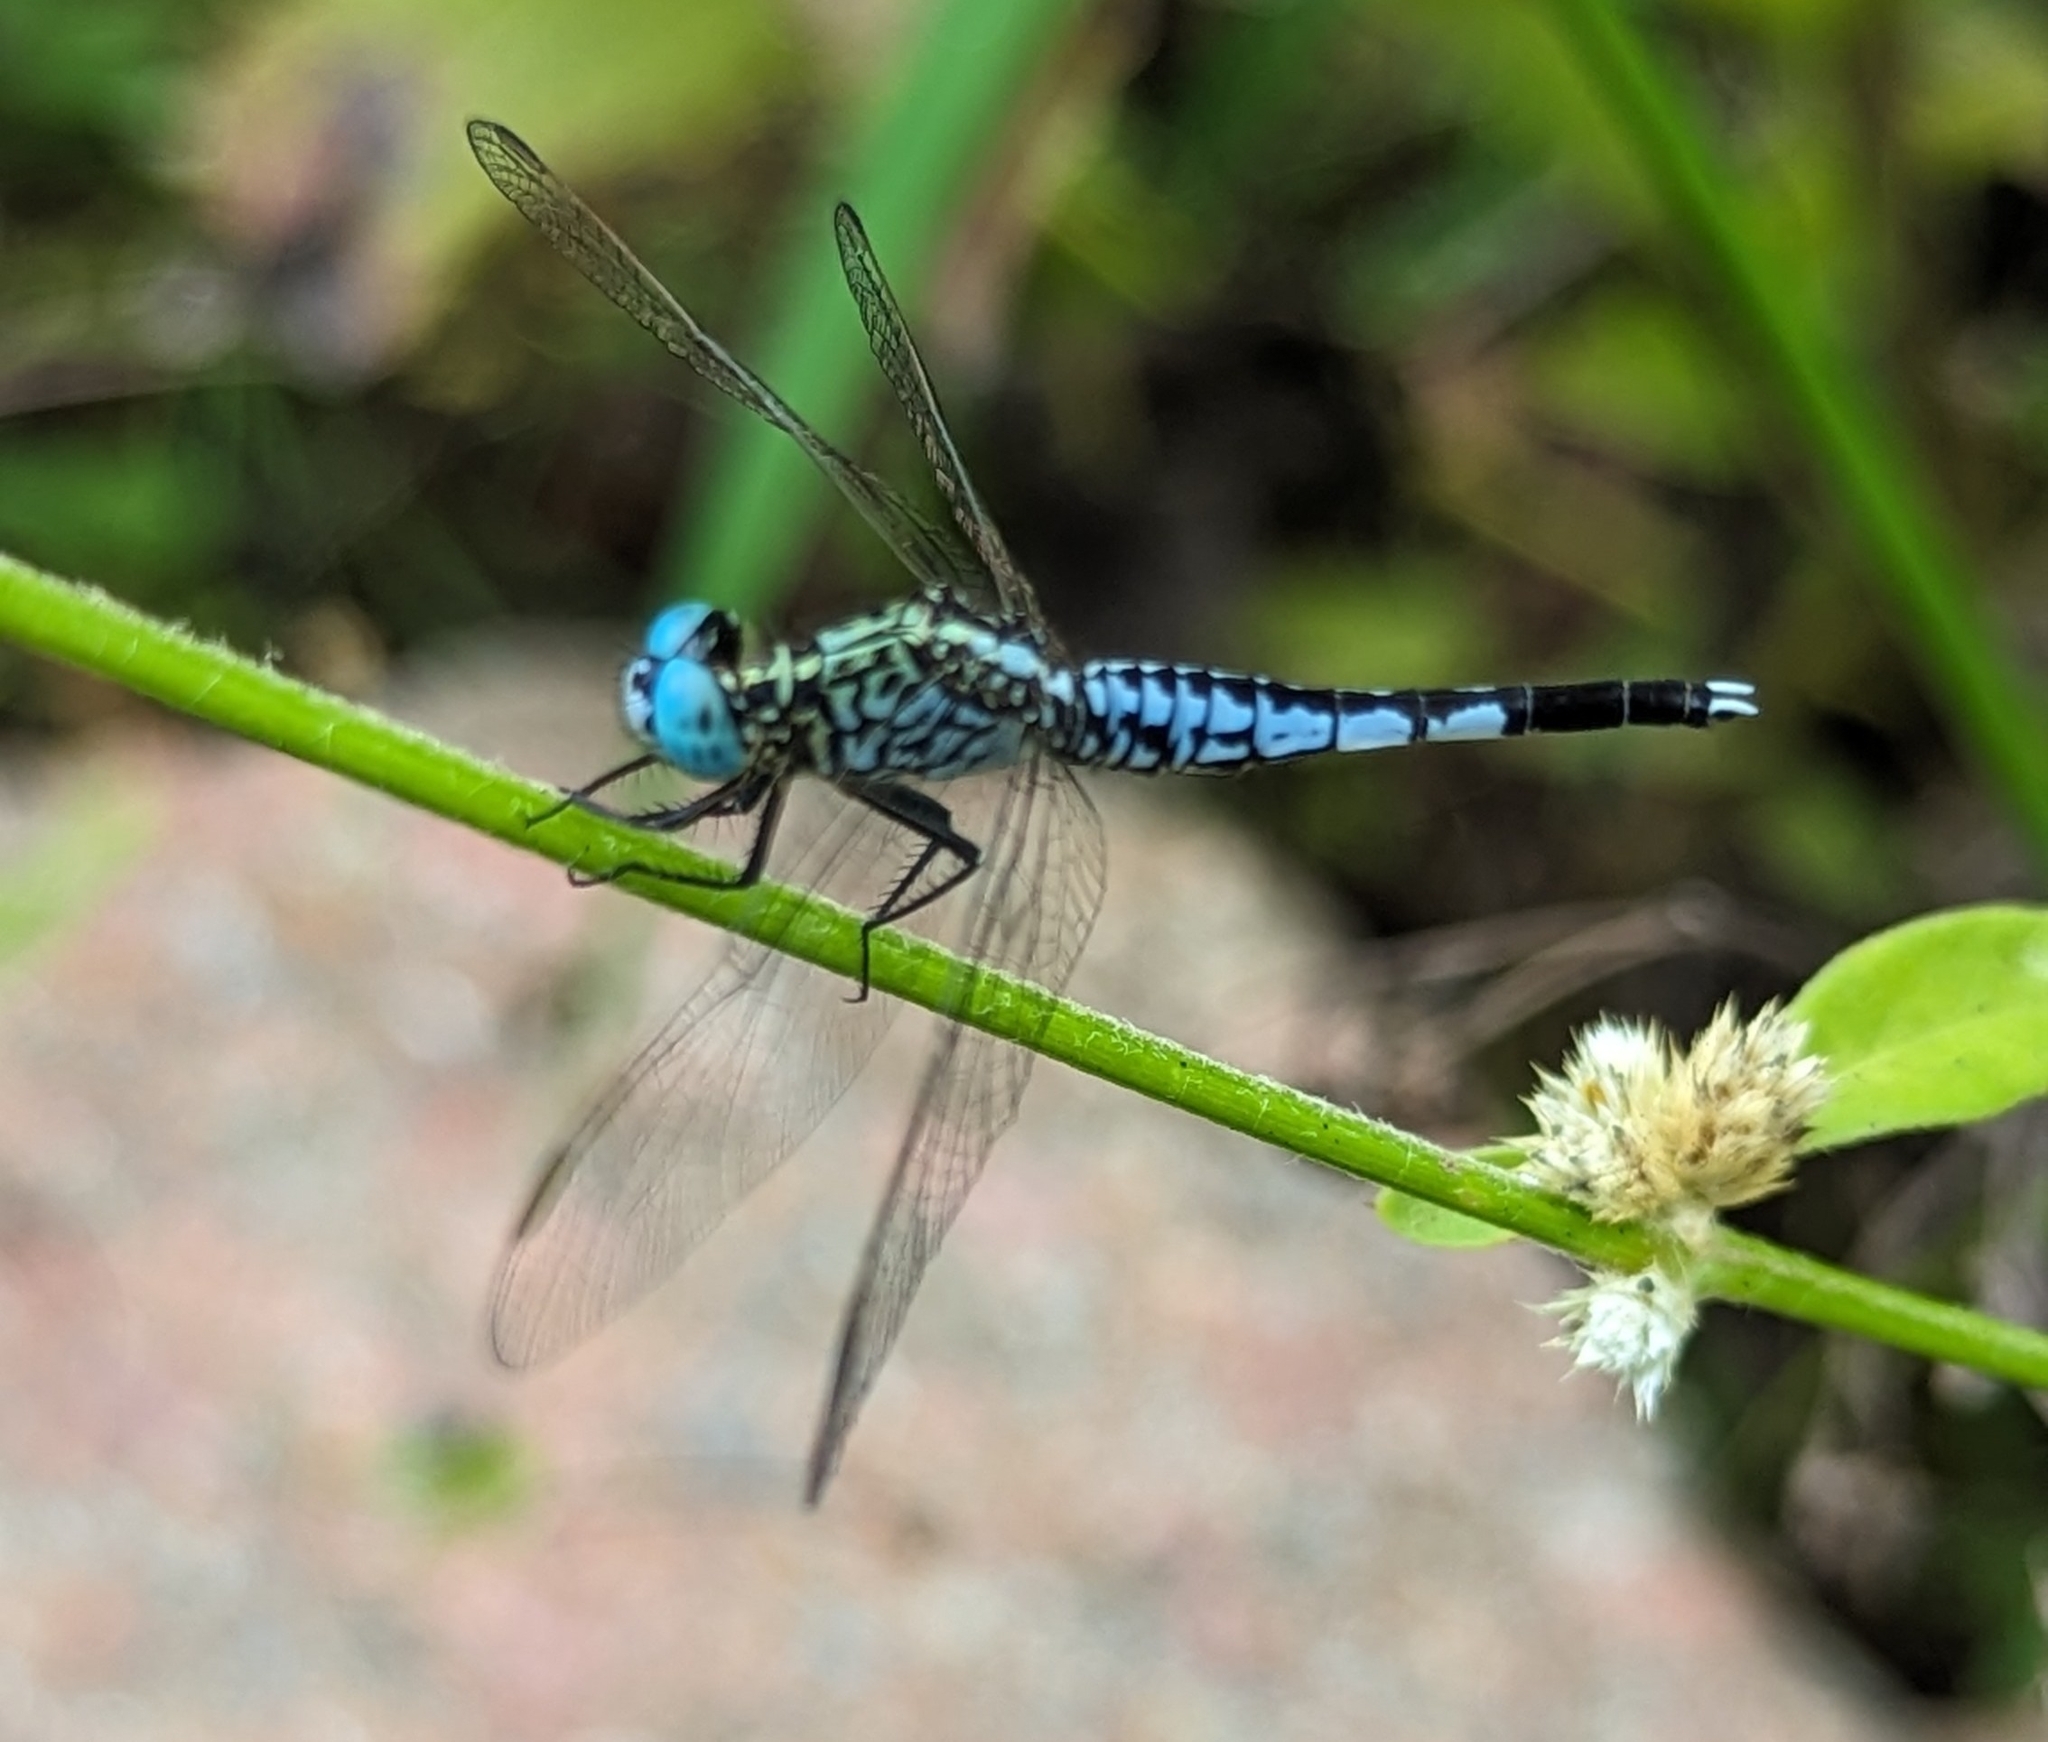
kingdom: Animalia
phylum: Arthropoda
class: Insecta
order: Odonata
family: Libellulidae
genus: Acisoma
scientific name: Acisoma panorpoides
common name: Asian pintail
